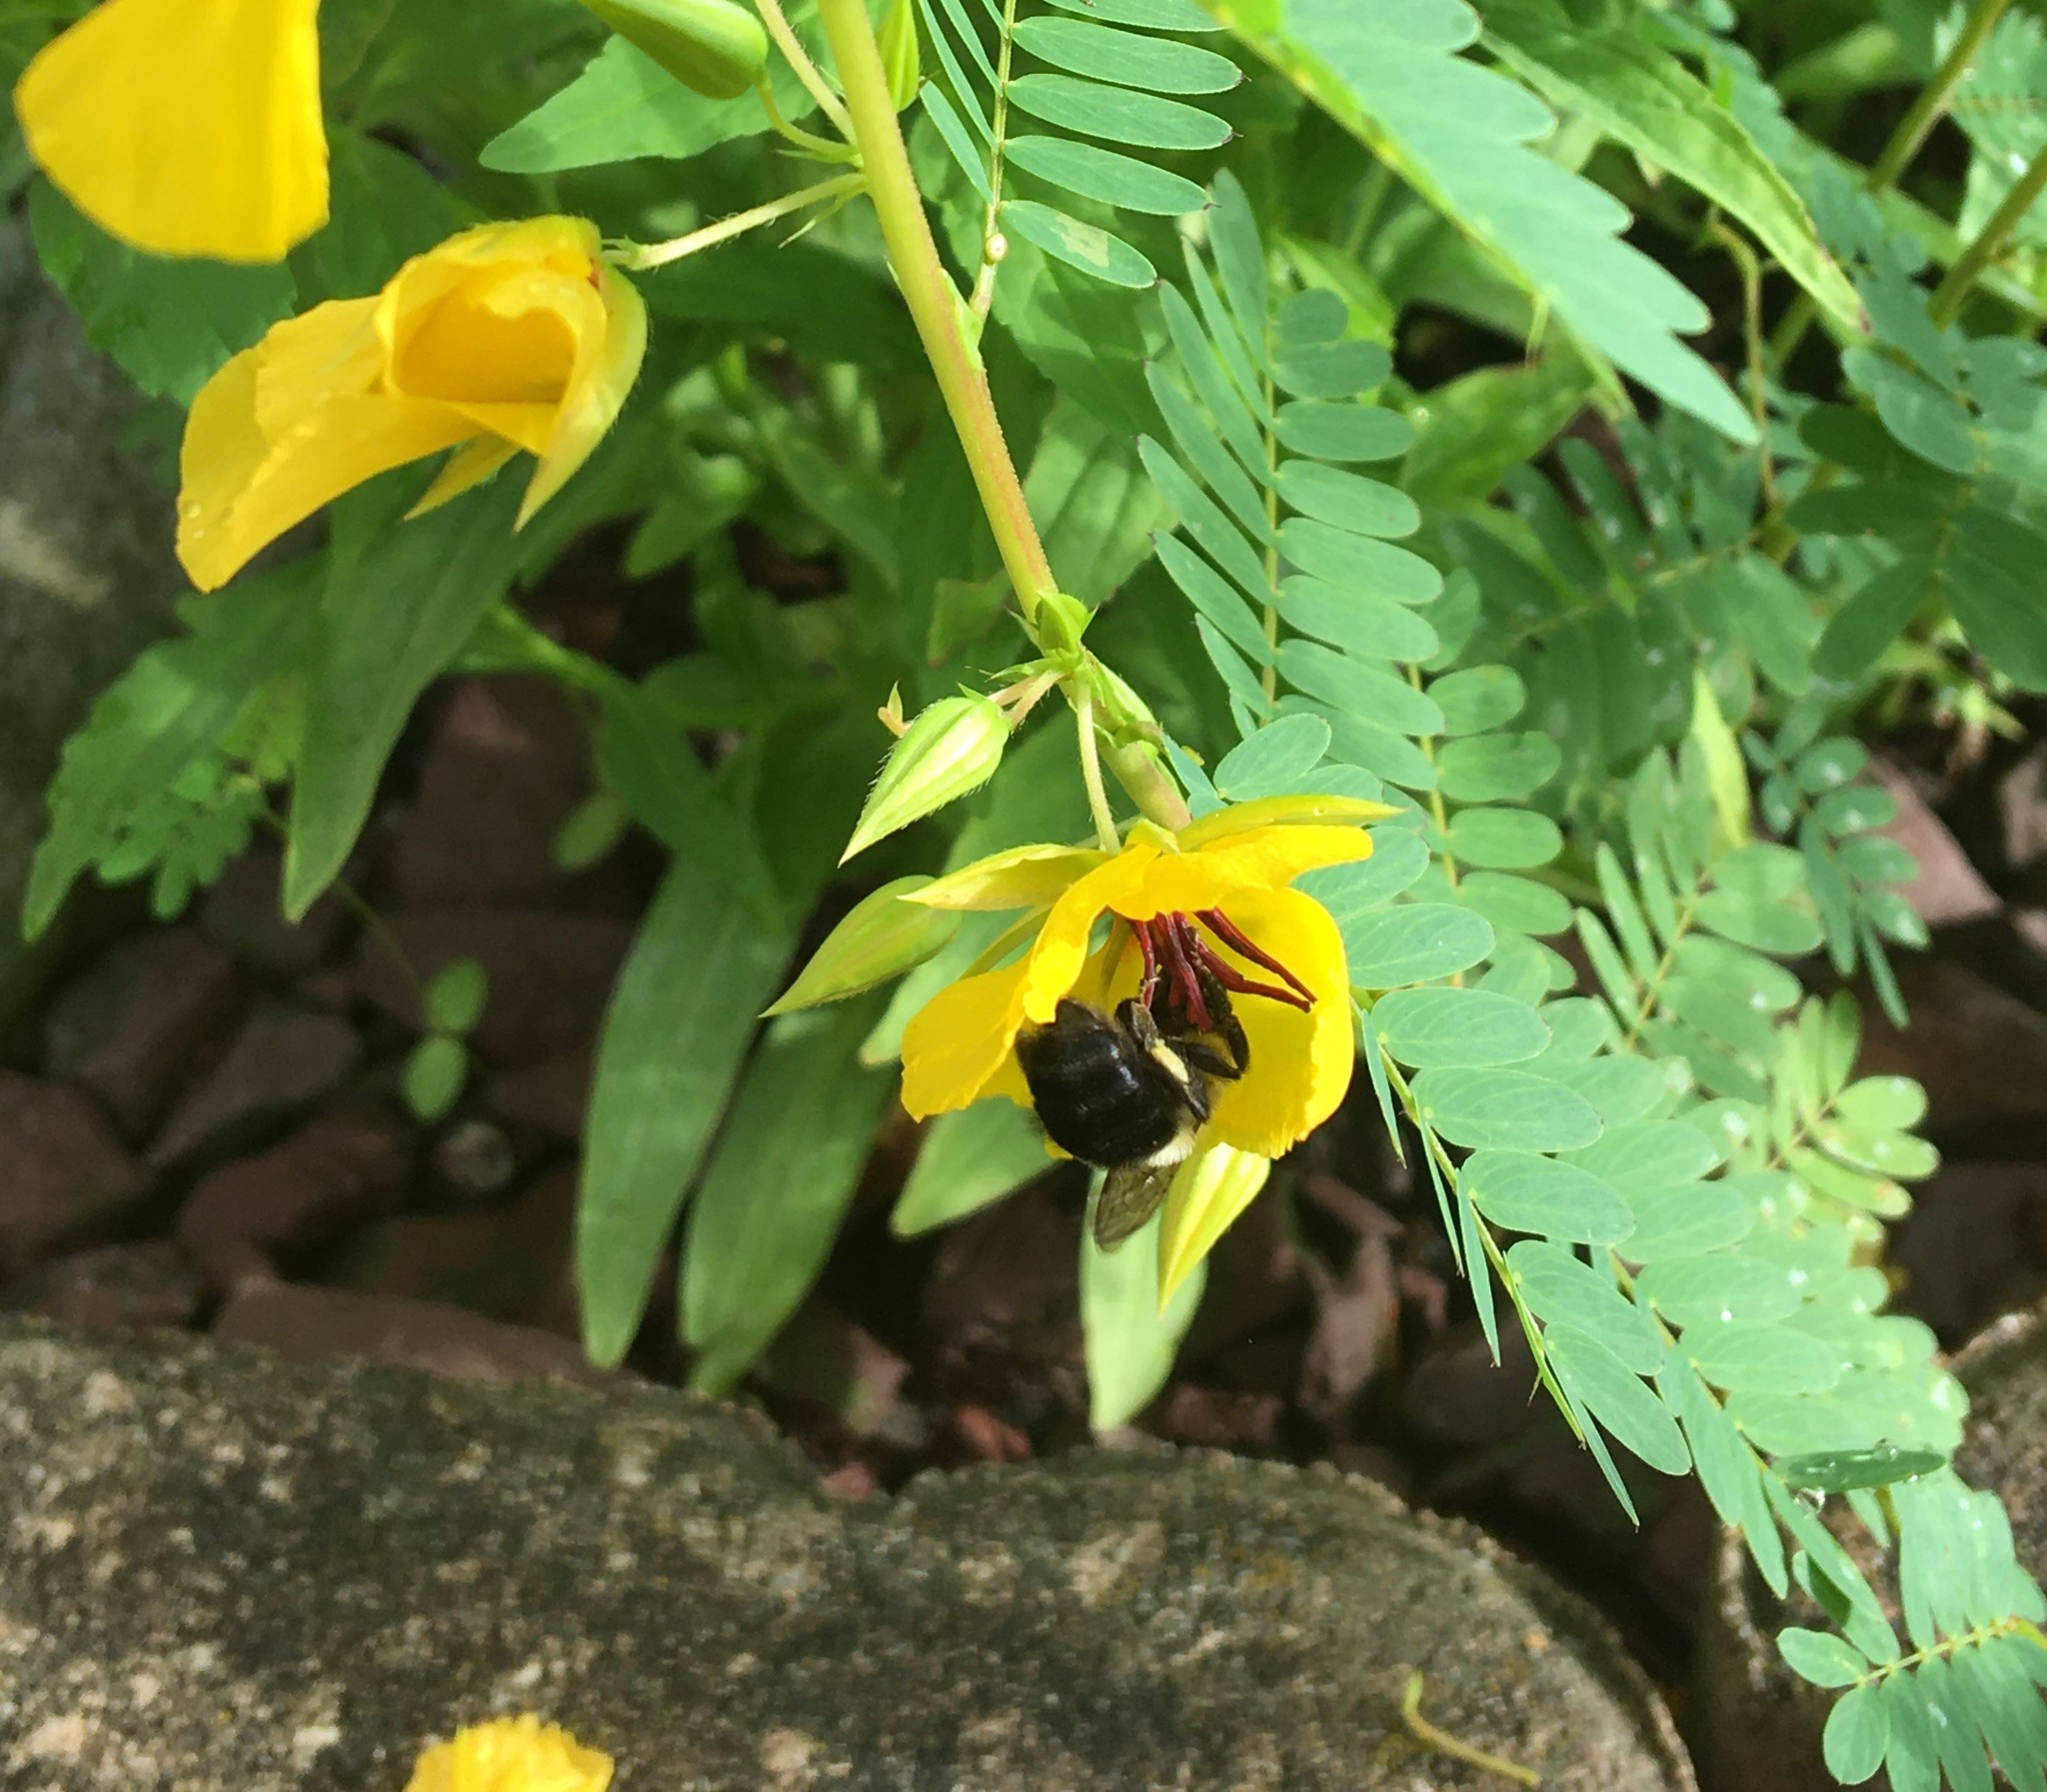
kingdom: Animalia
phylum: Arthropoda
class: Insecta
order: Hymenoptera
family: Apidae
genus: Bombus
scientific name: Bombus impatiens
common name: Common eastern bumble bee
